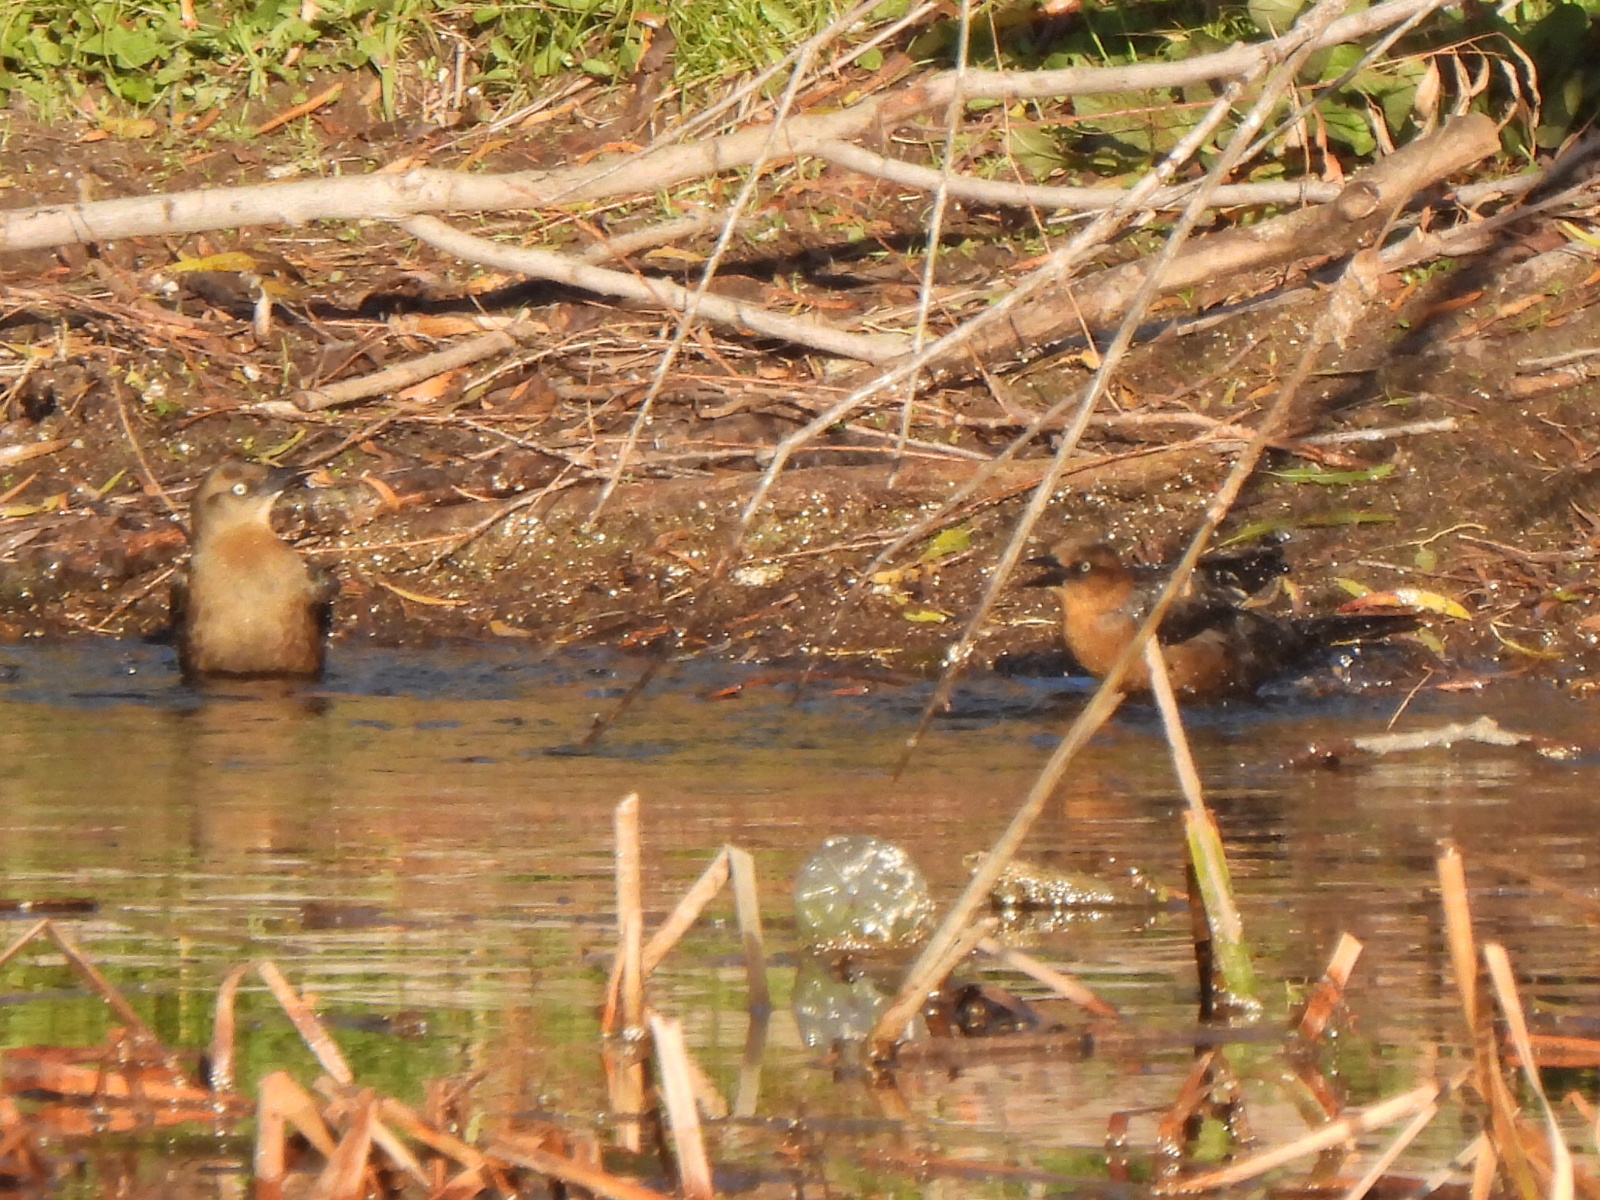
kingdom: Animalia
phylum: Chordata
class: Aves
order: Passeriformes
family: Icteridae
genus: Quiscalus
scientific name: Quiscalus mexicanus
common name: Great-tailed grackle
